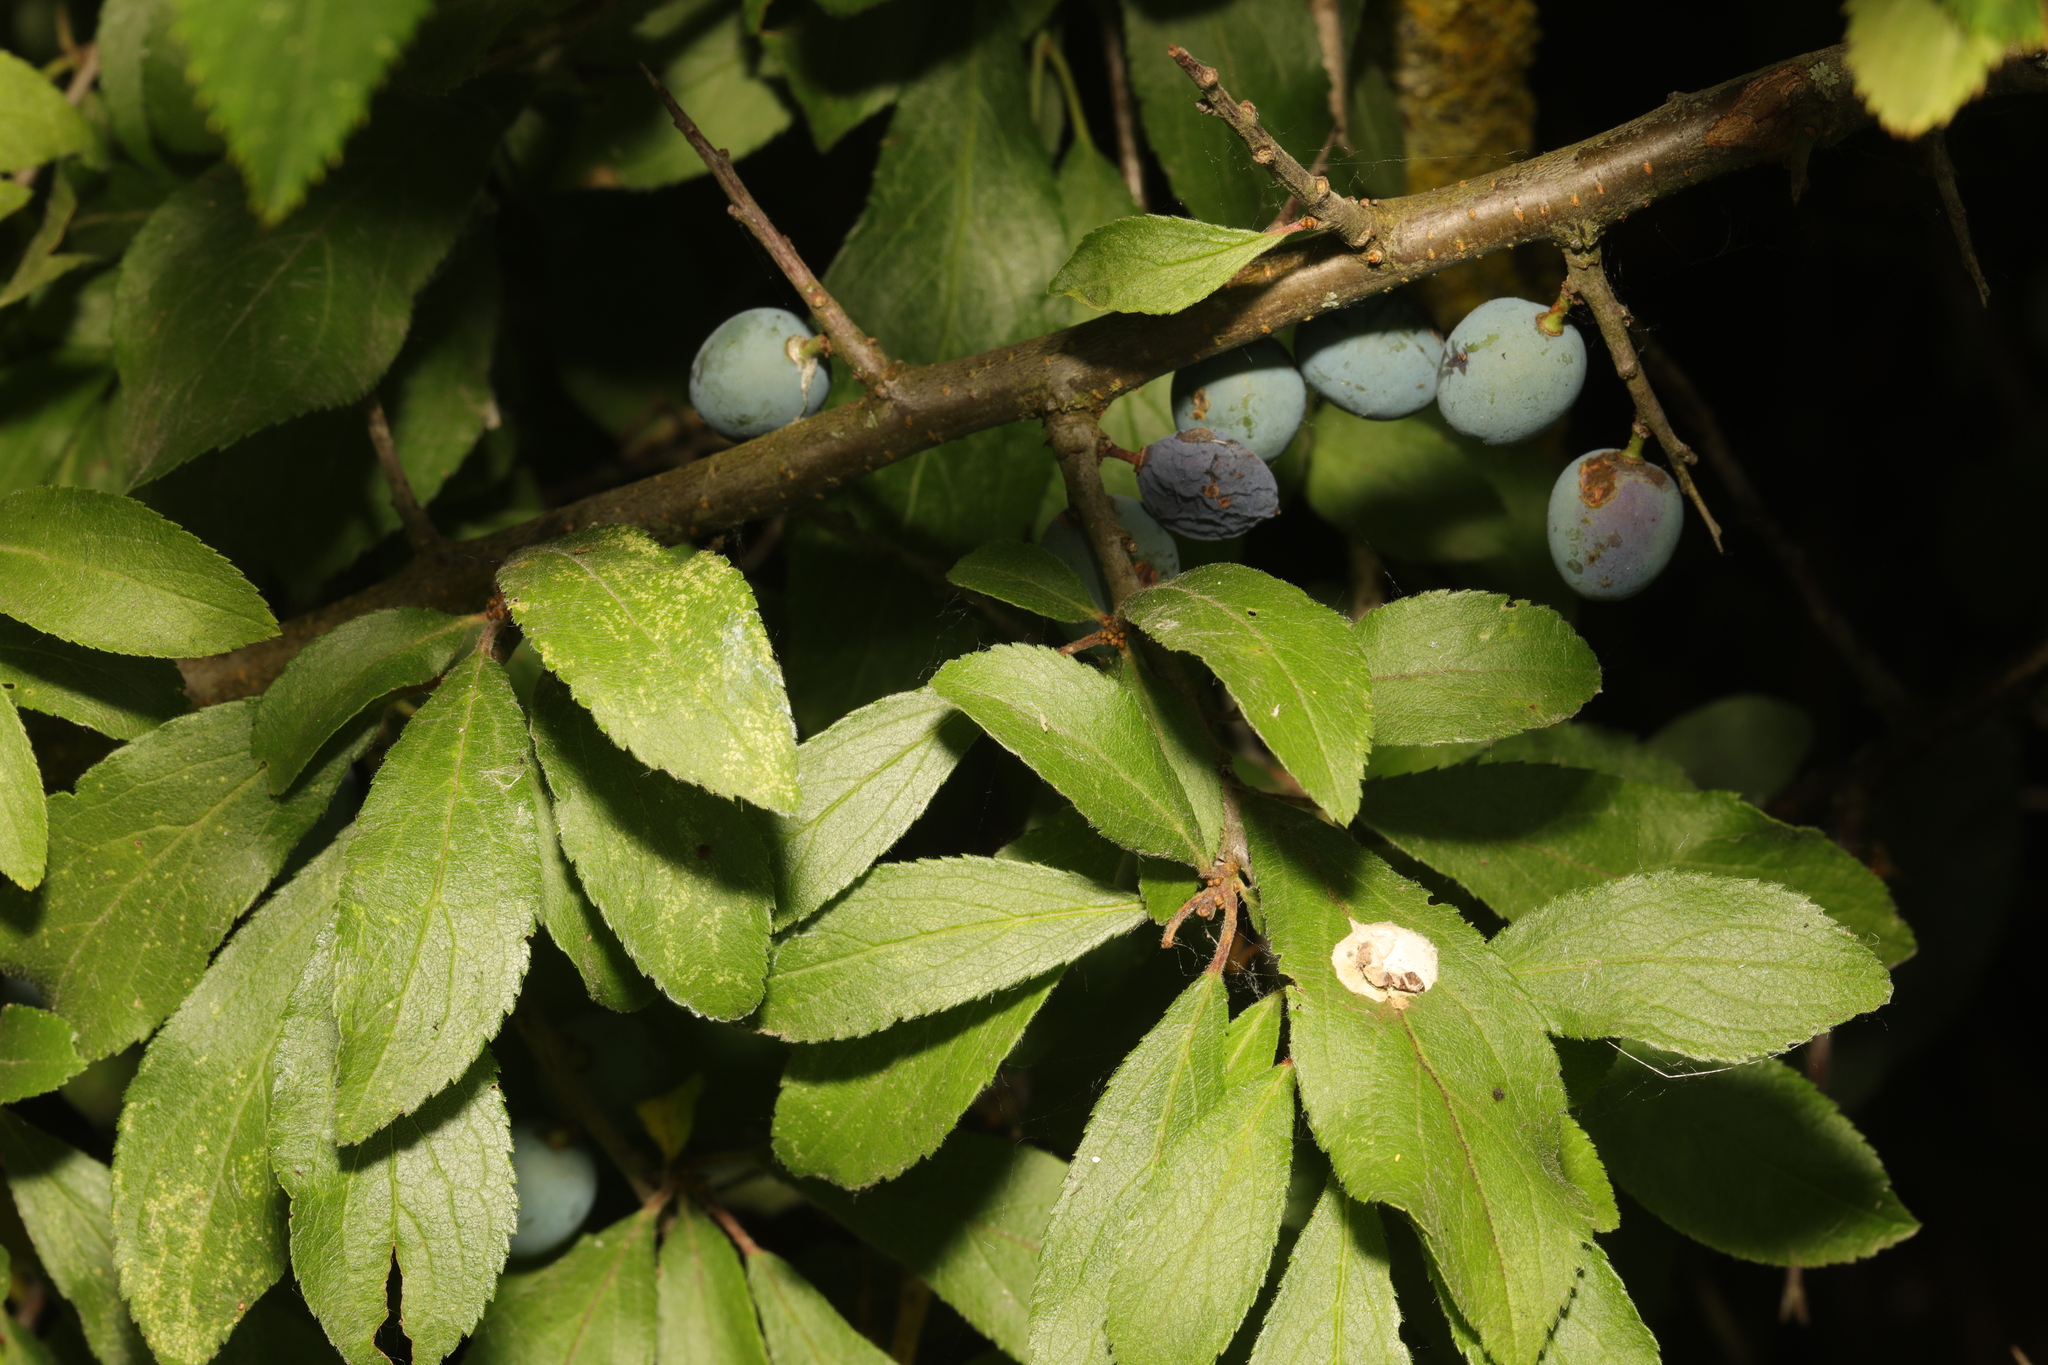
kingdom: Plantae
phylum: Tracheophyta
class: Magnoliopsida
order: Rosales
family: Rosaceae
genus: Prunus
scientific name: Prunus spinosa
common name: Blackthorn
